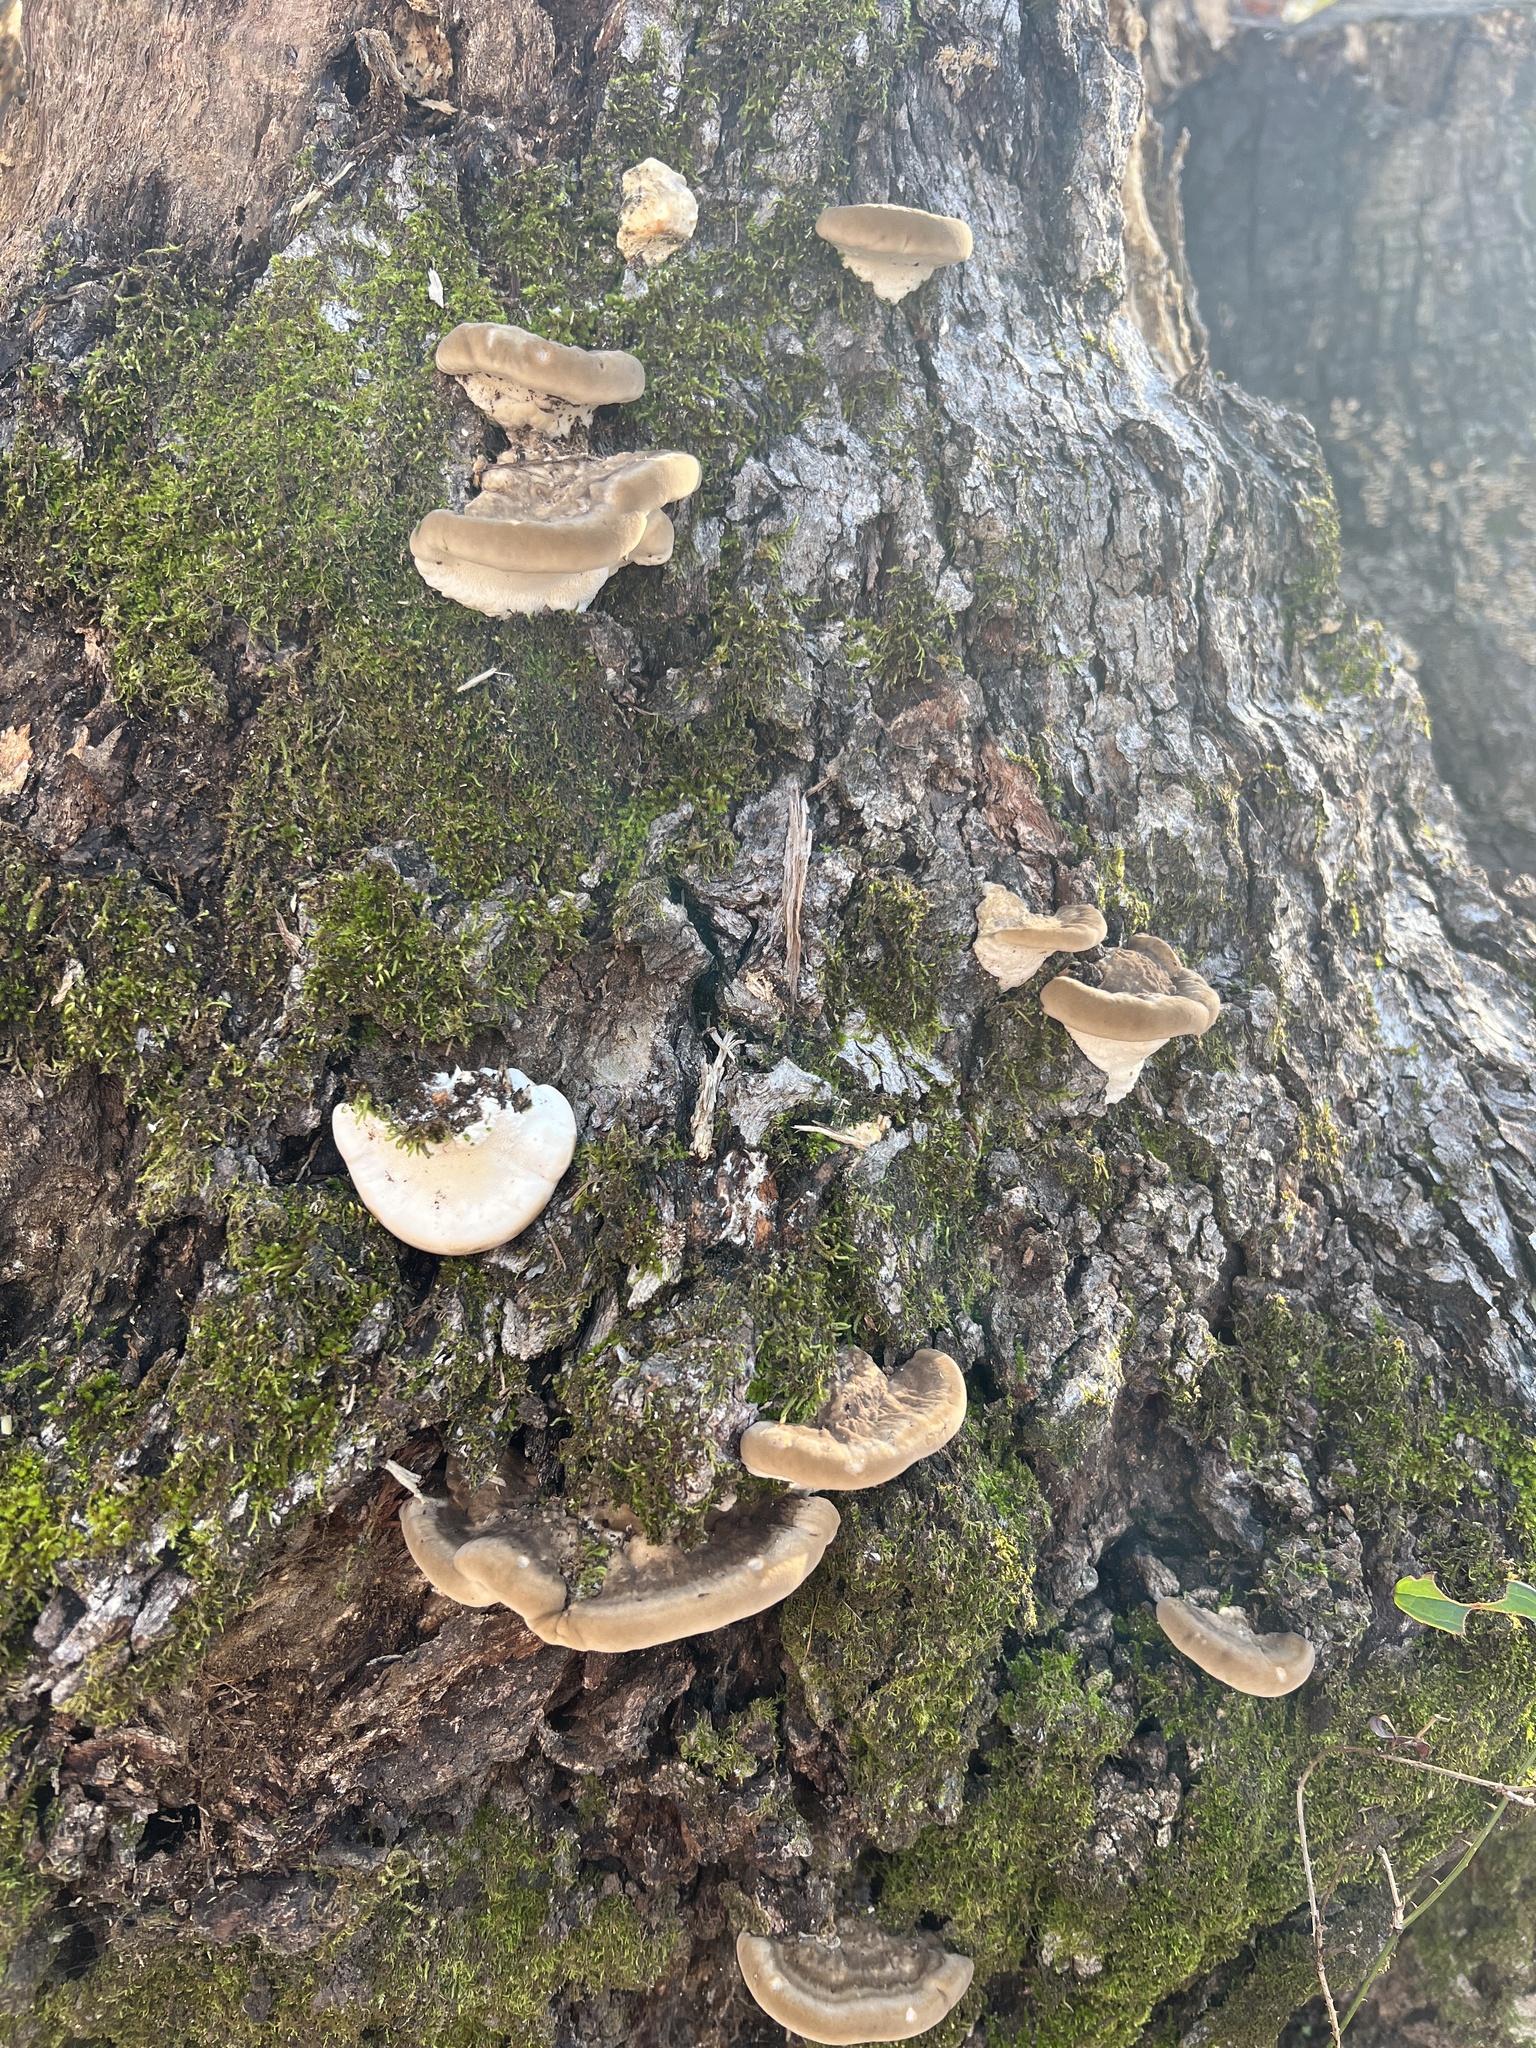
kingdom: Fungi
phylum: Basidiomycota
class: Agaricomycetes
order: Polyporales
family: Polyporaceae
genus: Trametes
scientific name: Trametes lactinea
